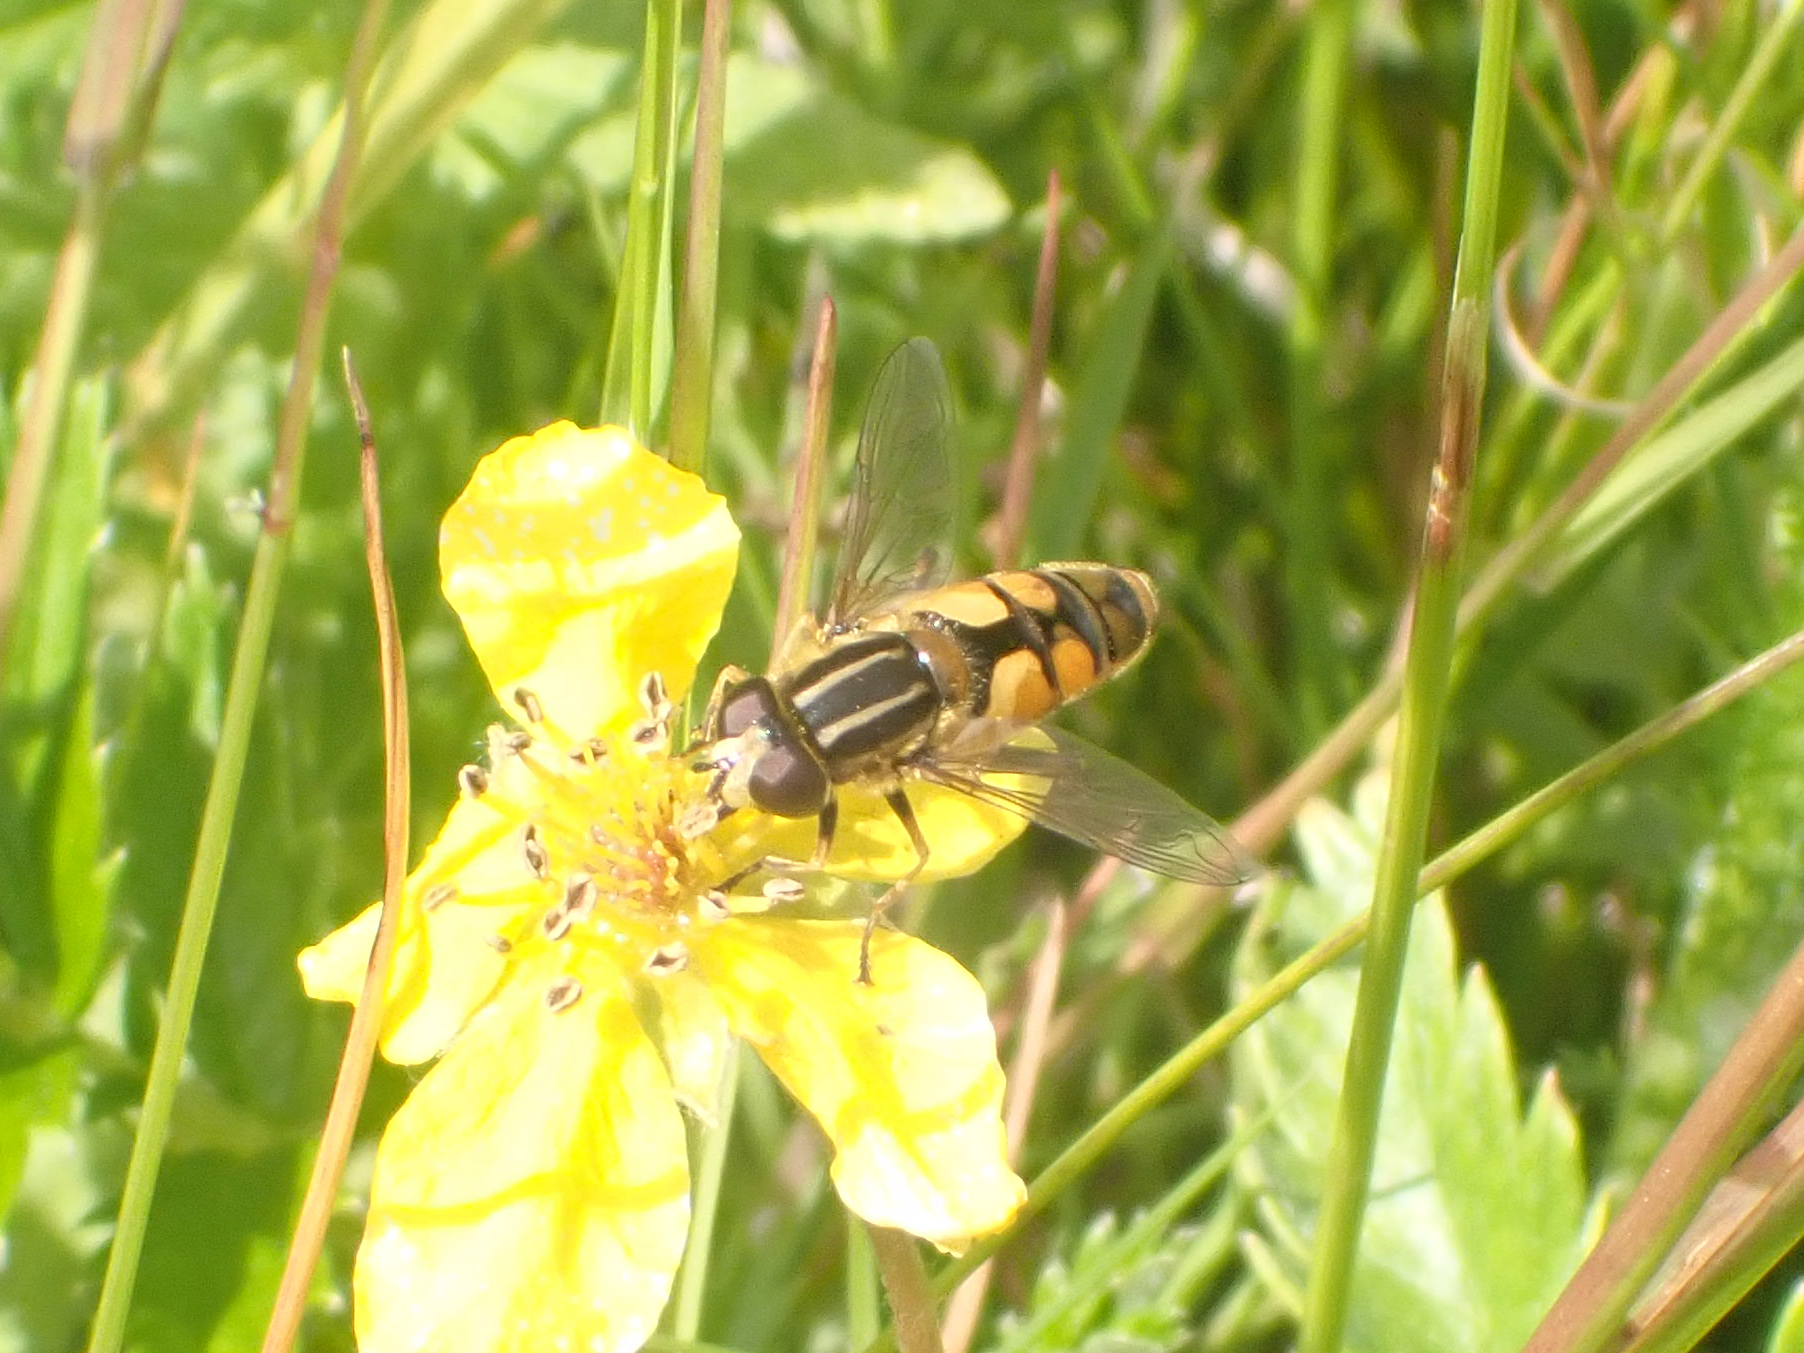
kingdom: Animalia
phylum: Arthropoda
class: Insecta
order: Diptera
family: Syrphidae
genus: Helophilus
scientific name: Helophilus hybridus
